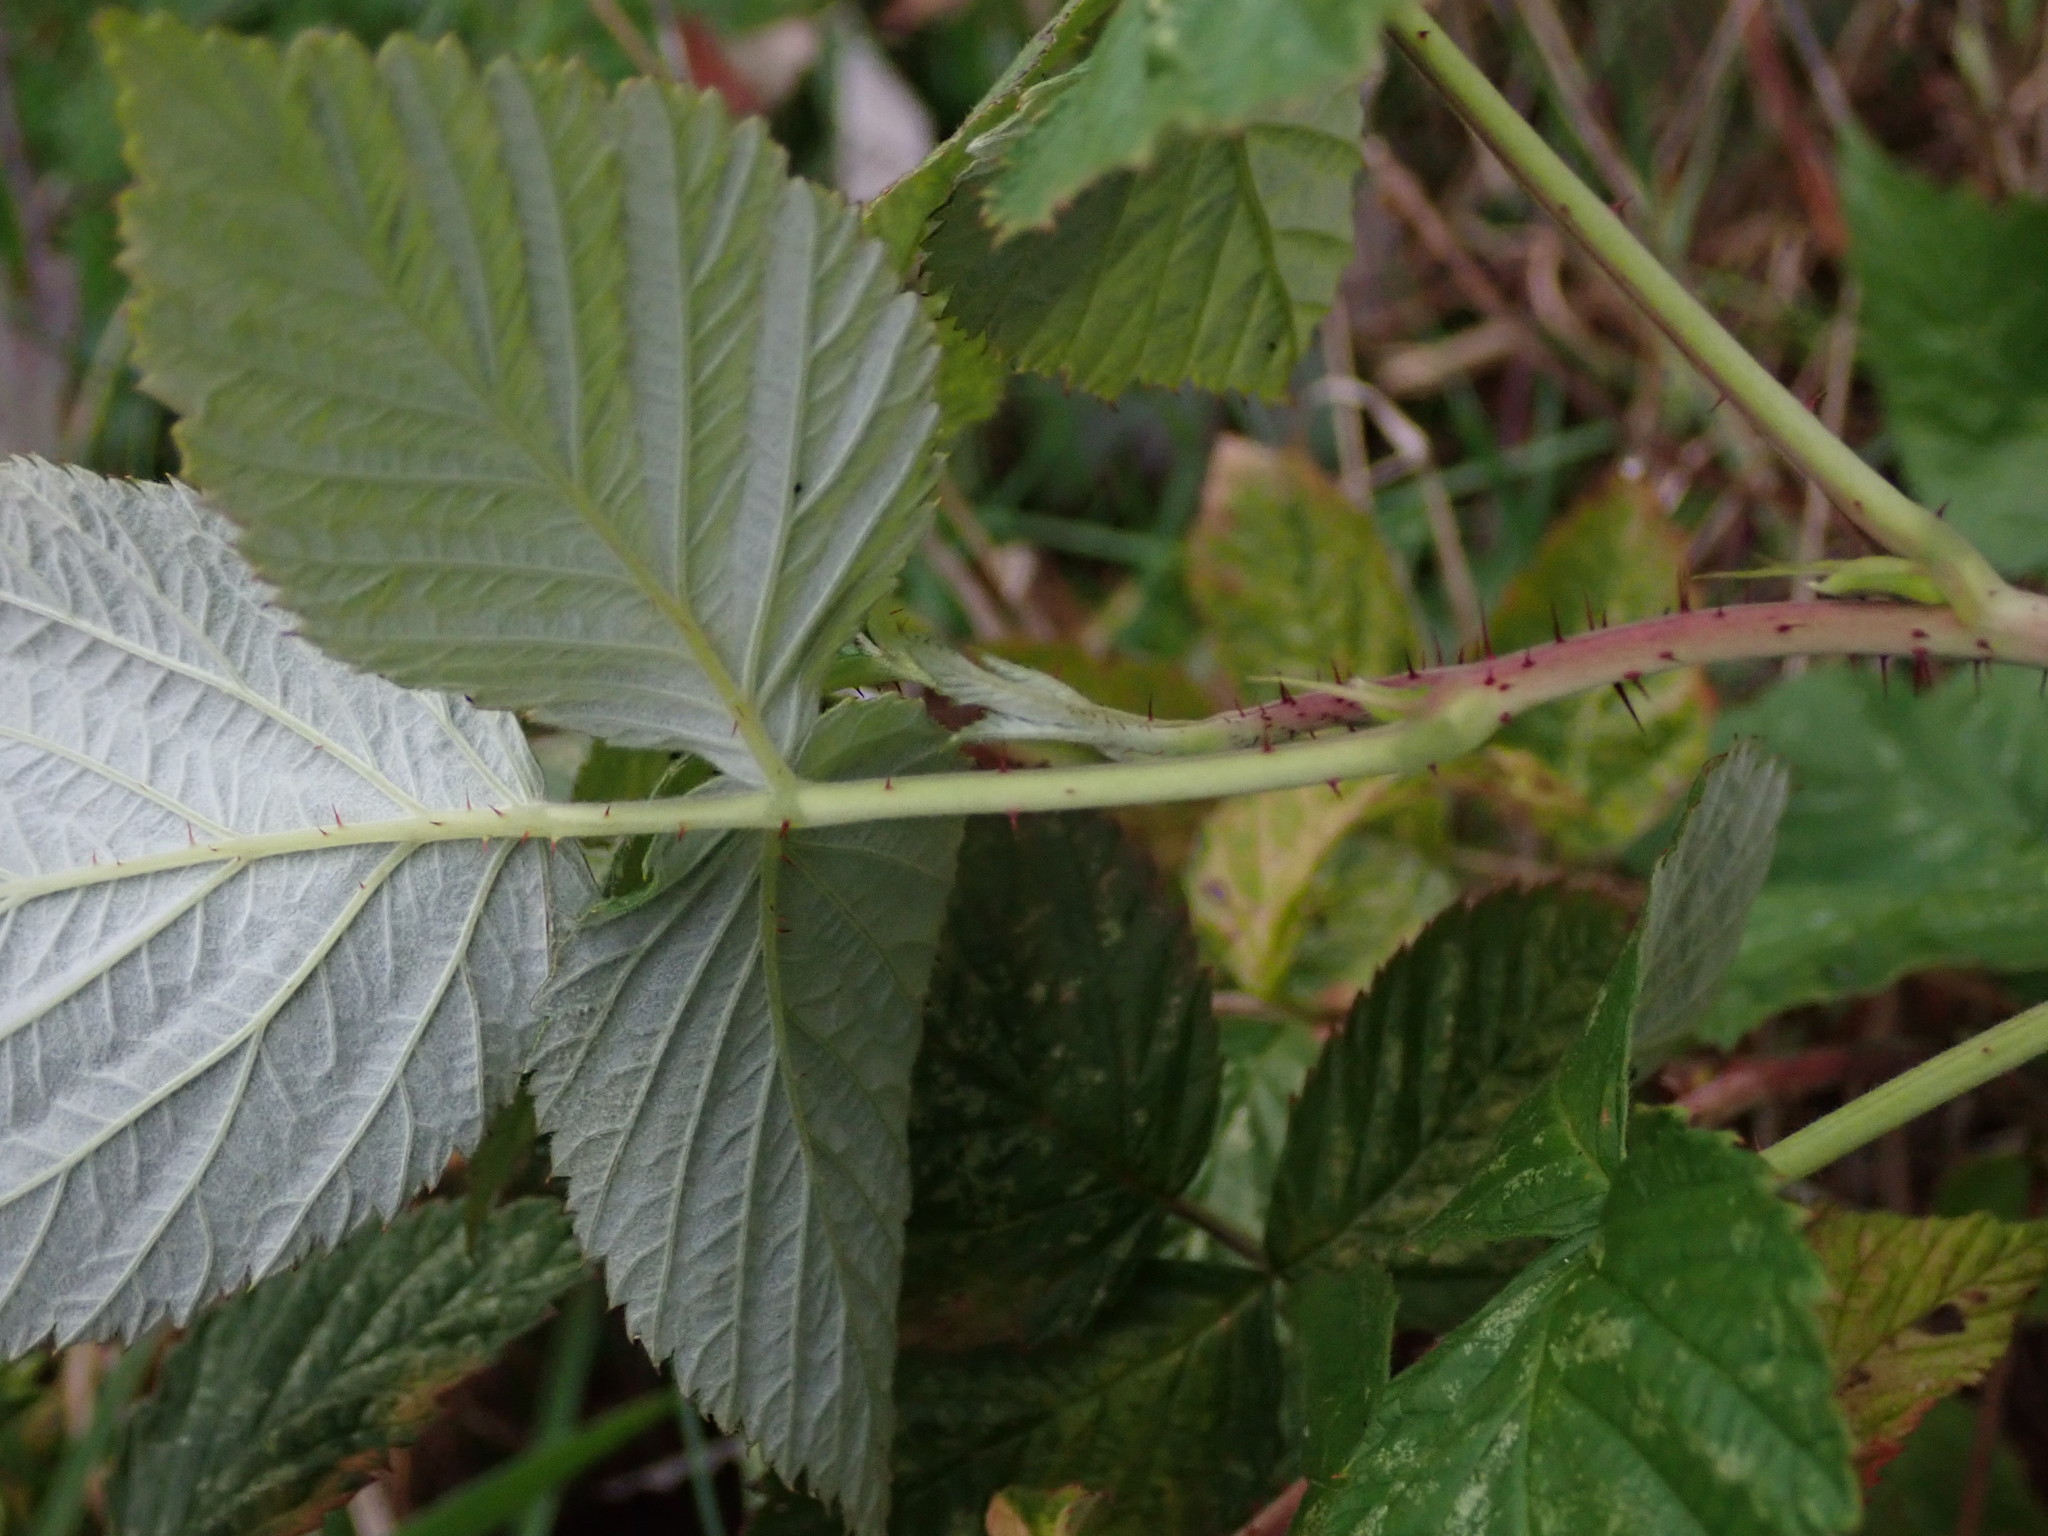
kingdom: Plantae
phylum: Tracheophyta
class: Magnoliopsida
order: Rosales
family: Rosaceae
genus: Rubus
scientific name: Rubus idaeus
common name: Raspberry
